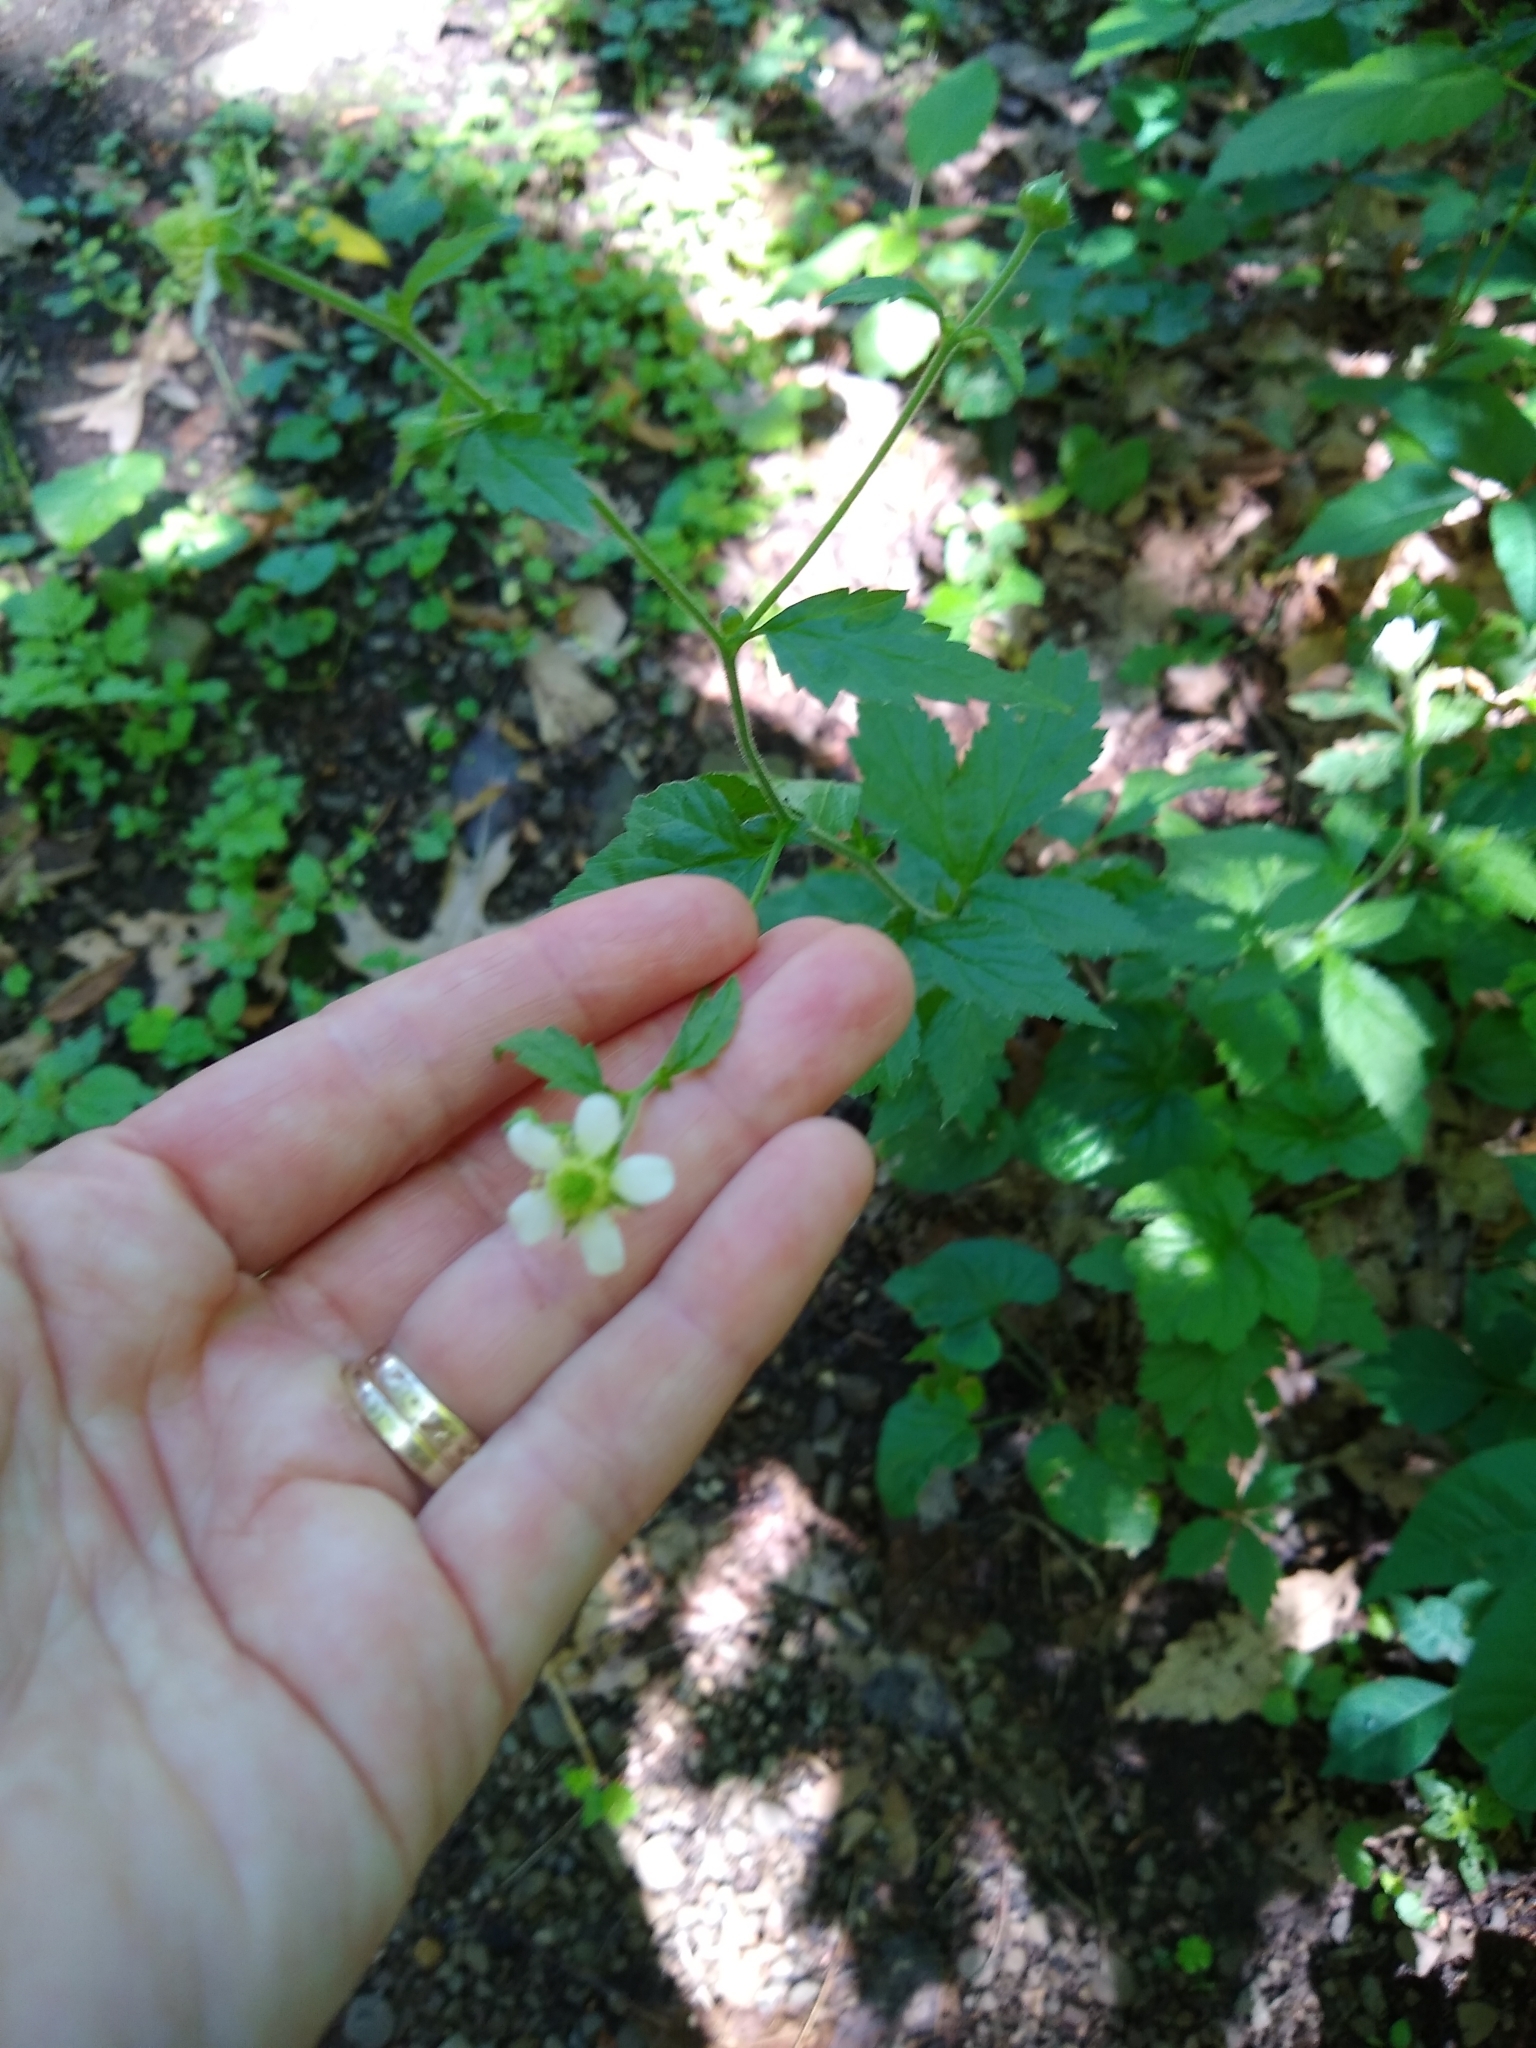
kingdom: Plantae
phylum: Tracheophyta
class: Magnoliopsida
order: Rosales
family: Rosaceae
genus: Geum
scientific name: Geum canadense
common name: White avens
